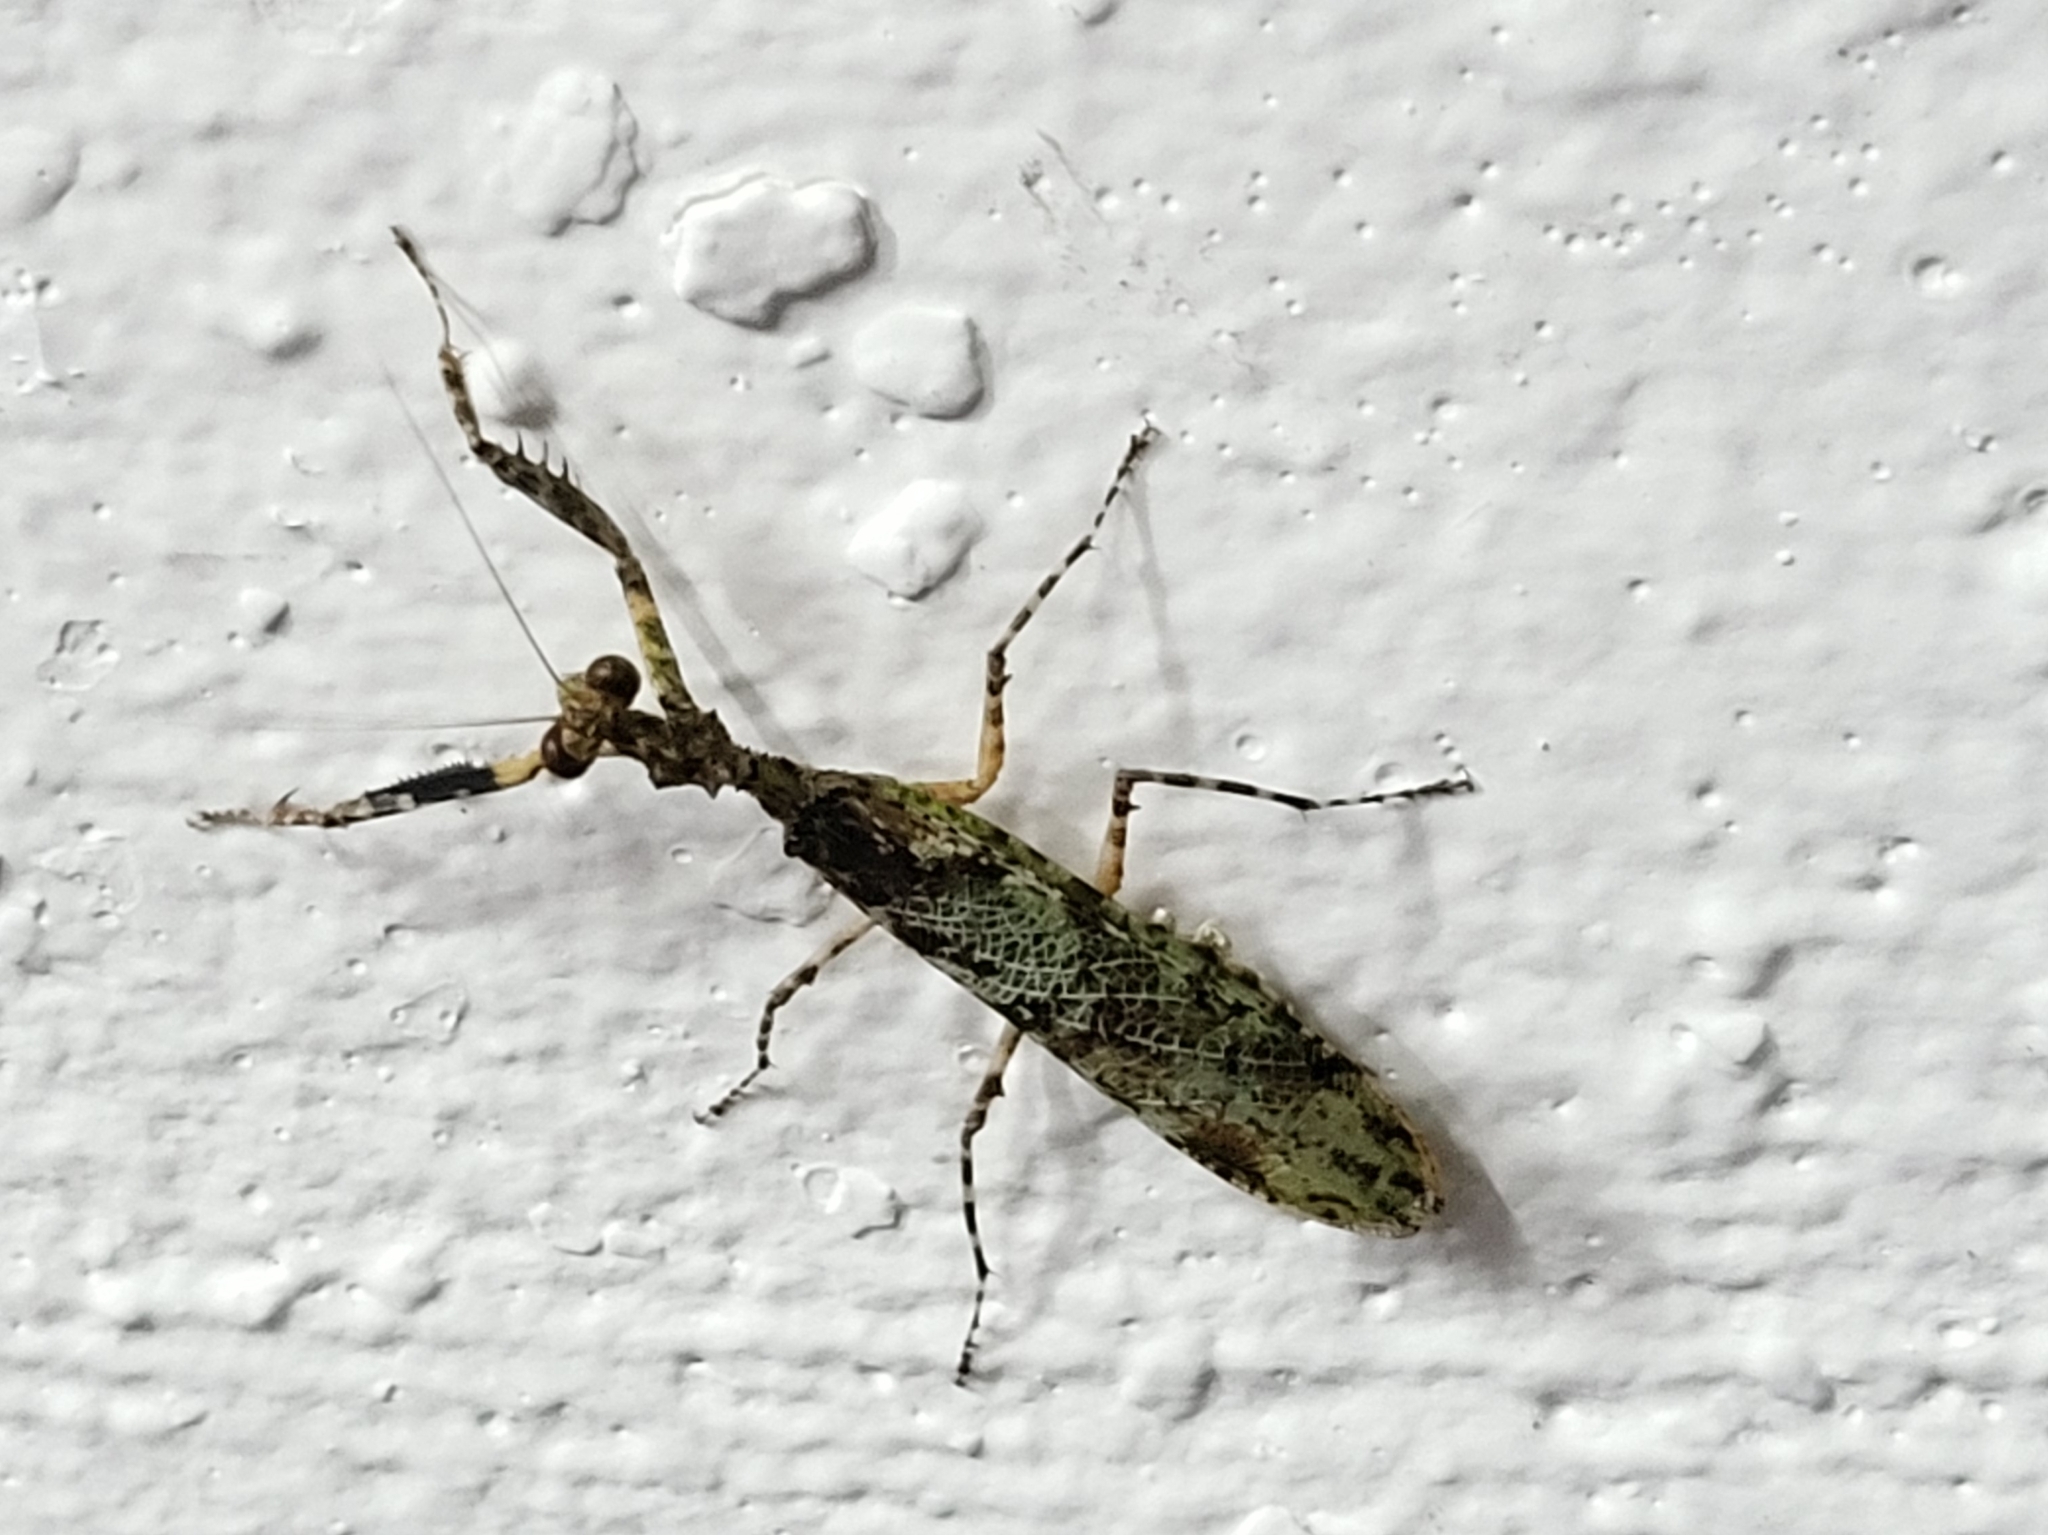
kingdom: Animalia
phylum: Arthropoda
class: Insecta
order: Mantodea
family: Hymenopodidae
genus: Majangella
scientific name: Majangella moultoni
